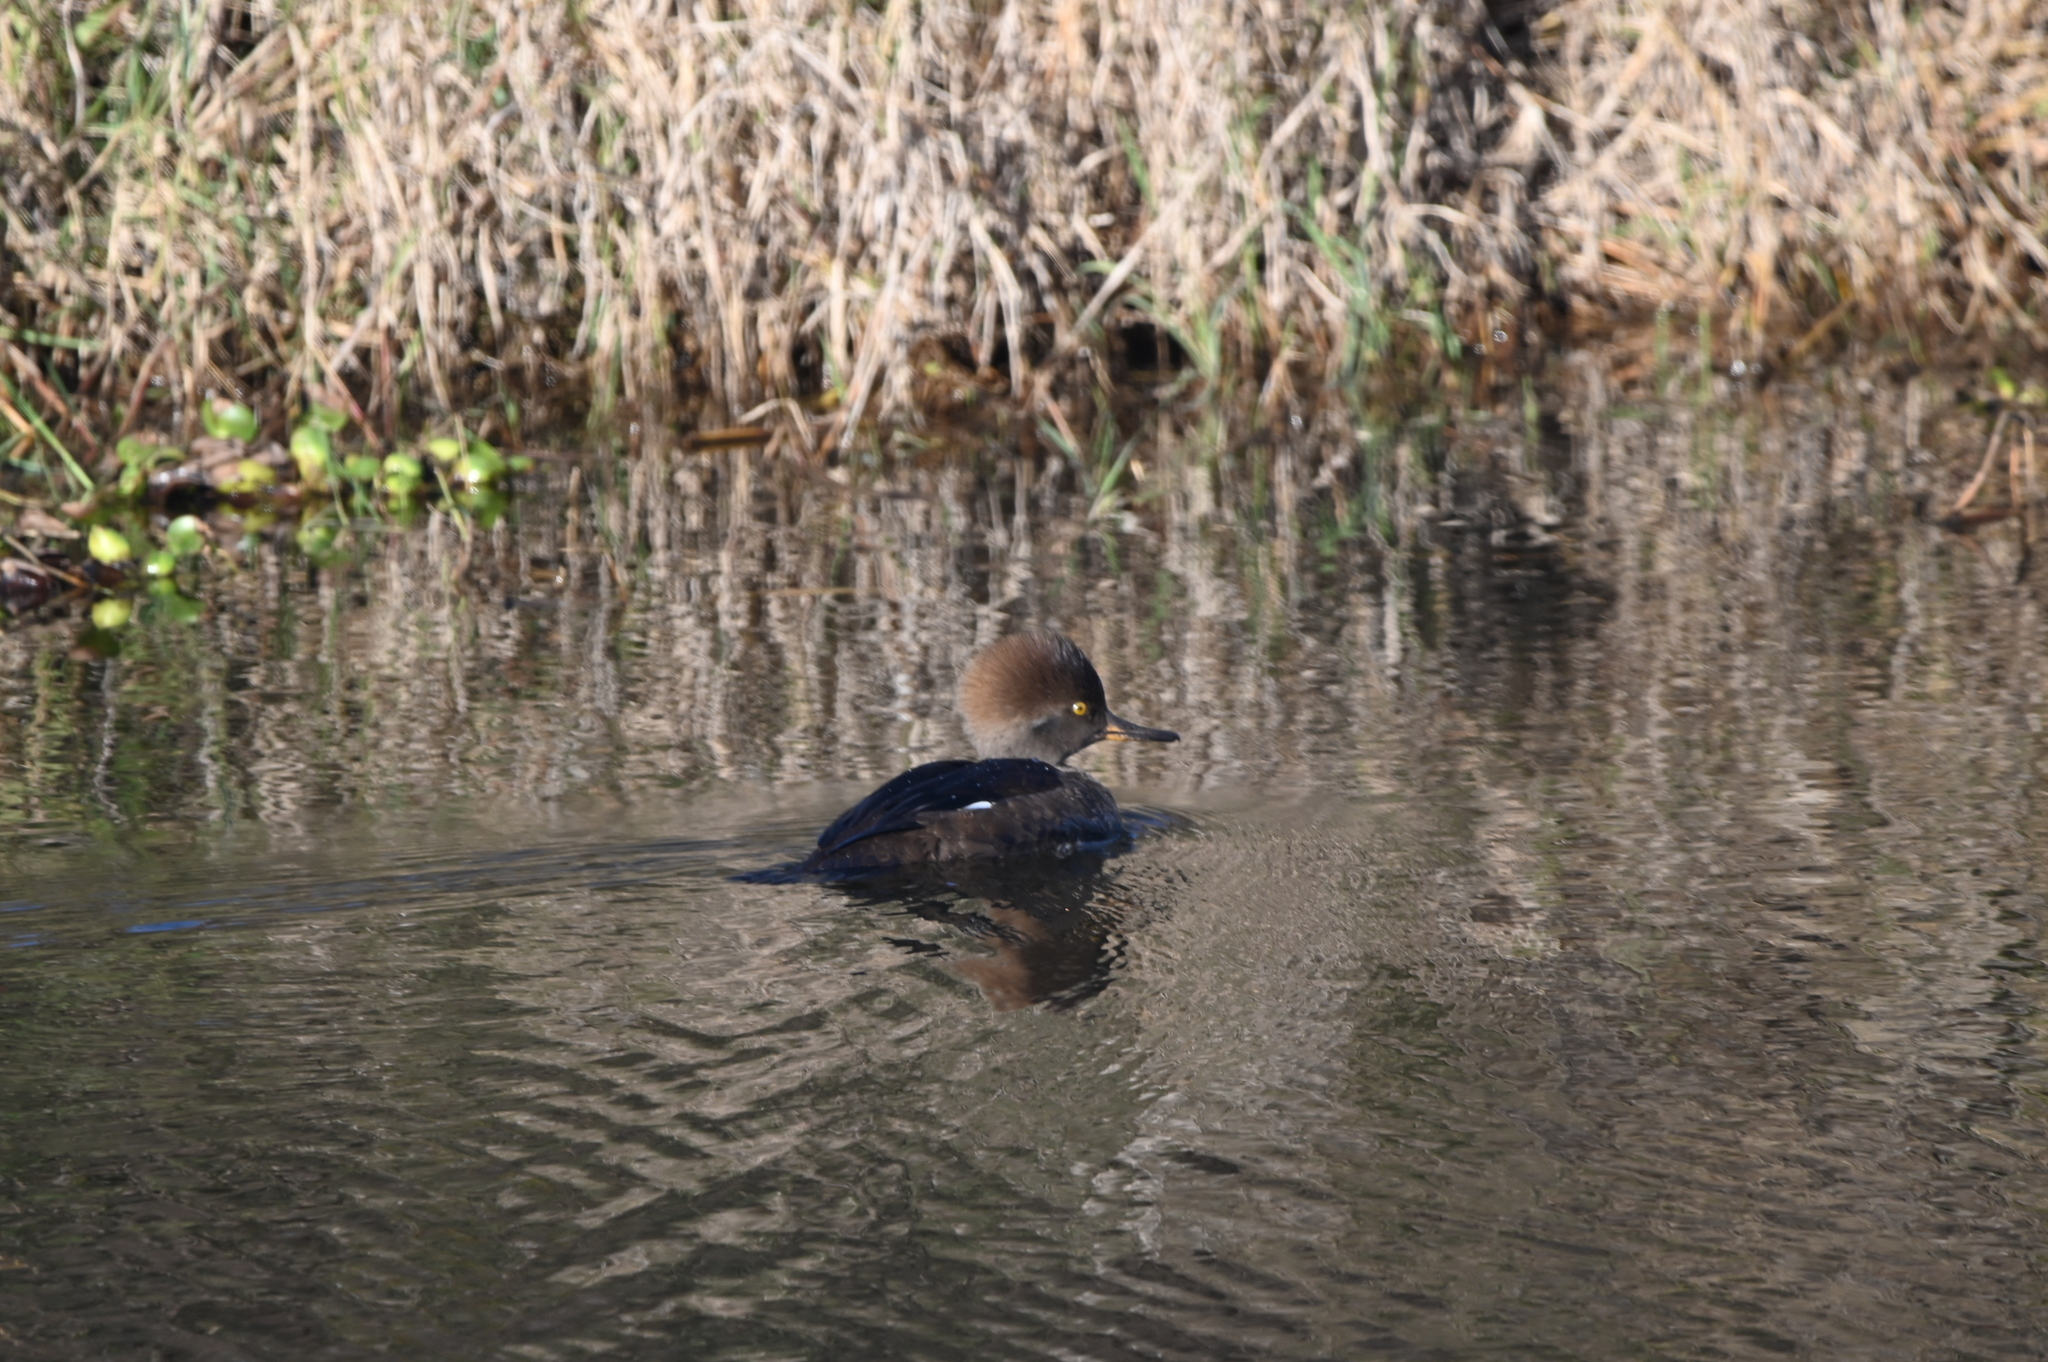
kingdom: Animalia
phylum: Chordata
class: Aves
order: Anseriformes
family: Anatidae
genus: Lophodytes
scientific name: Lophodytes cucullatus
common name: Hooded merganser
